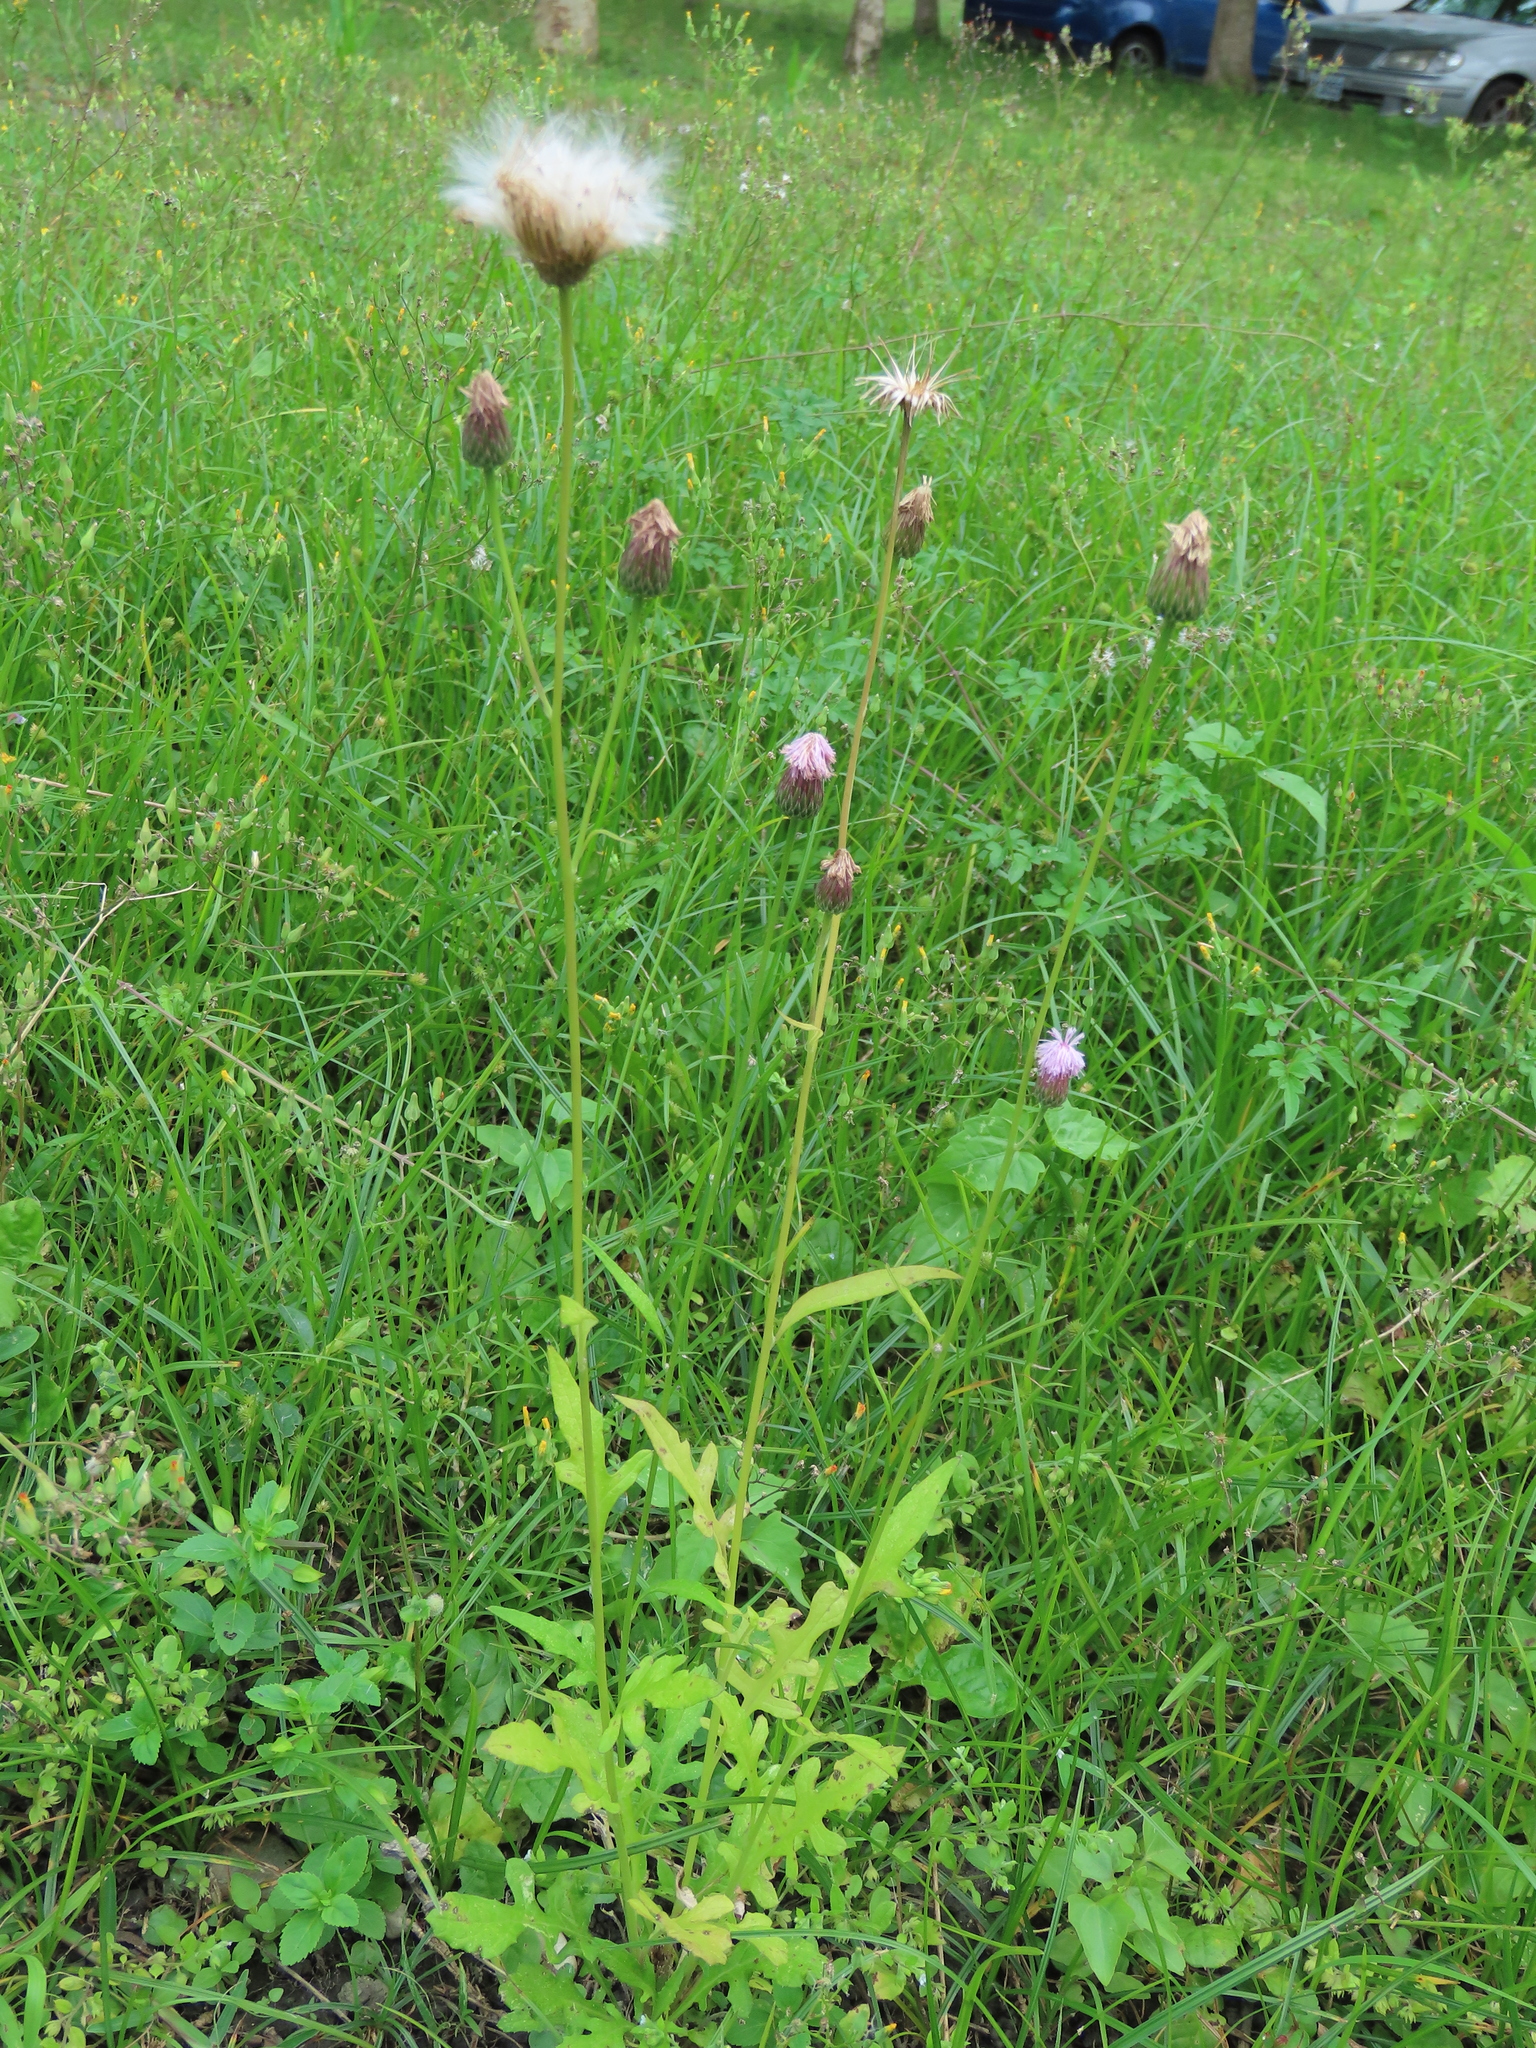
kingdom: Plantae
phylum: Tracheophyta
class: Magnoliopsida
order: Asterales
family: Asteraceae
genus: Saussurea
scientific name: Saussurea lyrata
